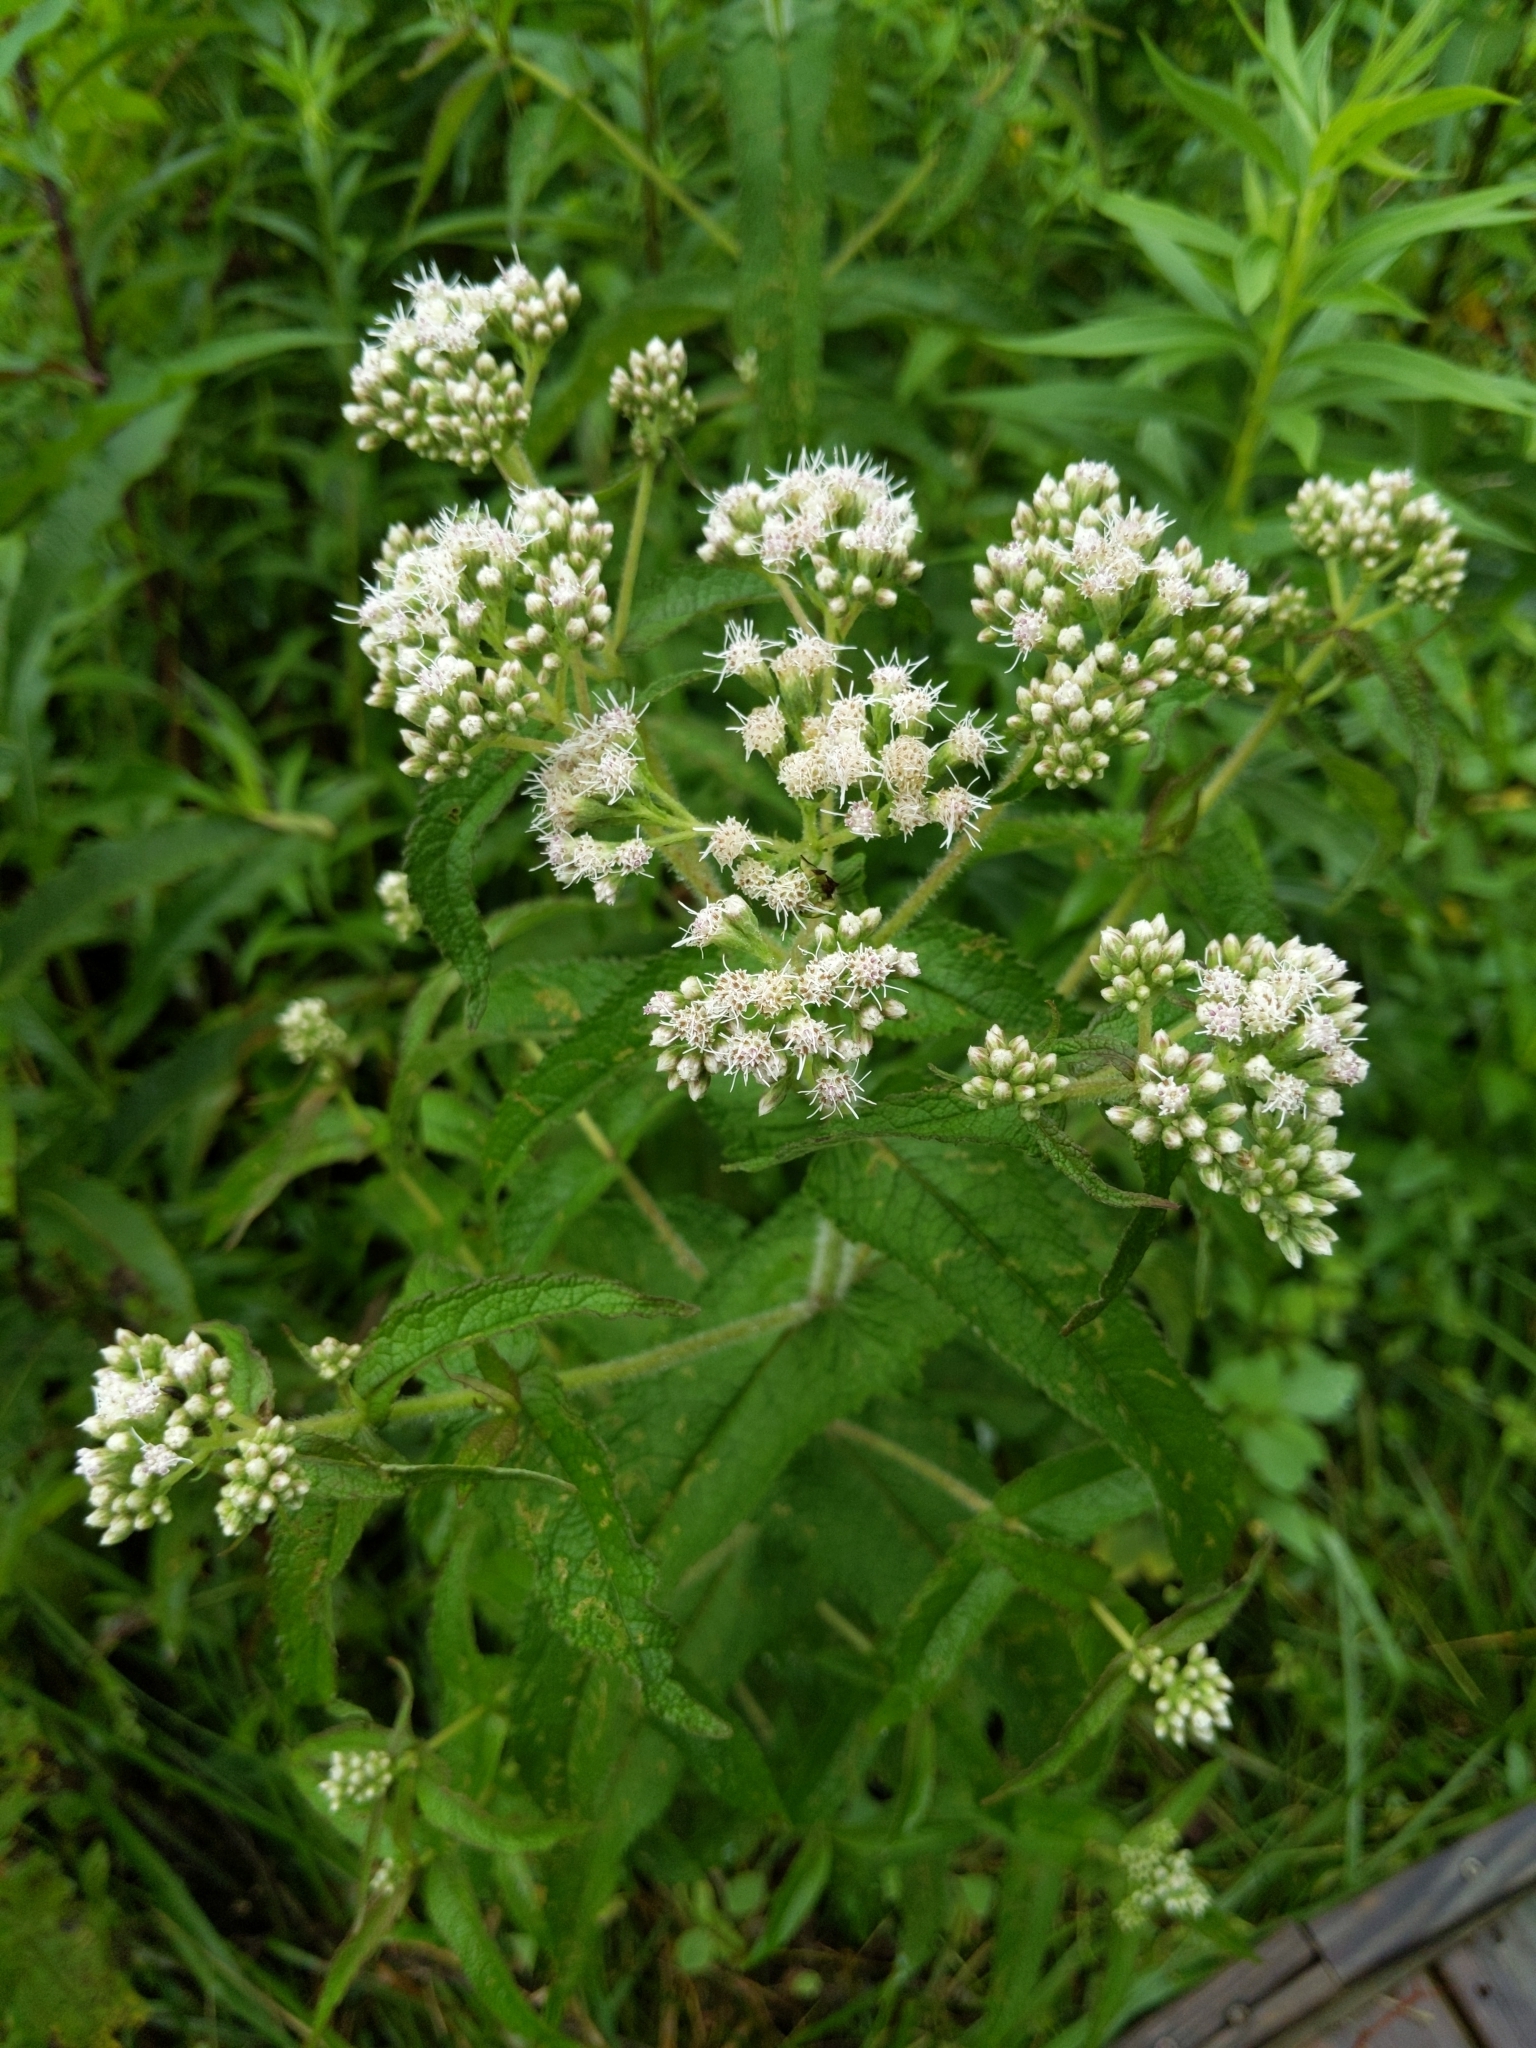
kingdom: Plantae
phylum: Tracheophyta
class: Magnoliopsida
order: Asterales
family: Asteraceae
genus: Eupatorium
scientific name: Eupatorium perfoliatum
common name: Boneset
